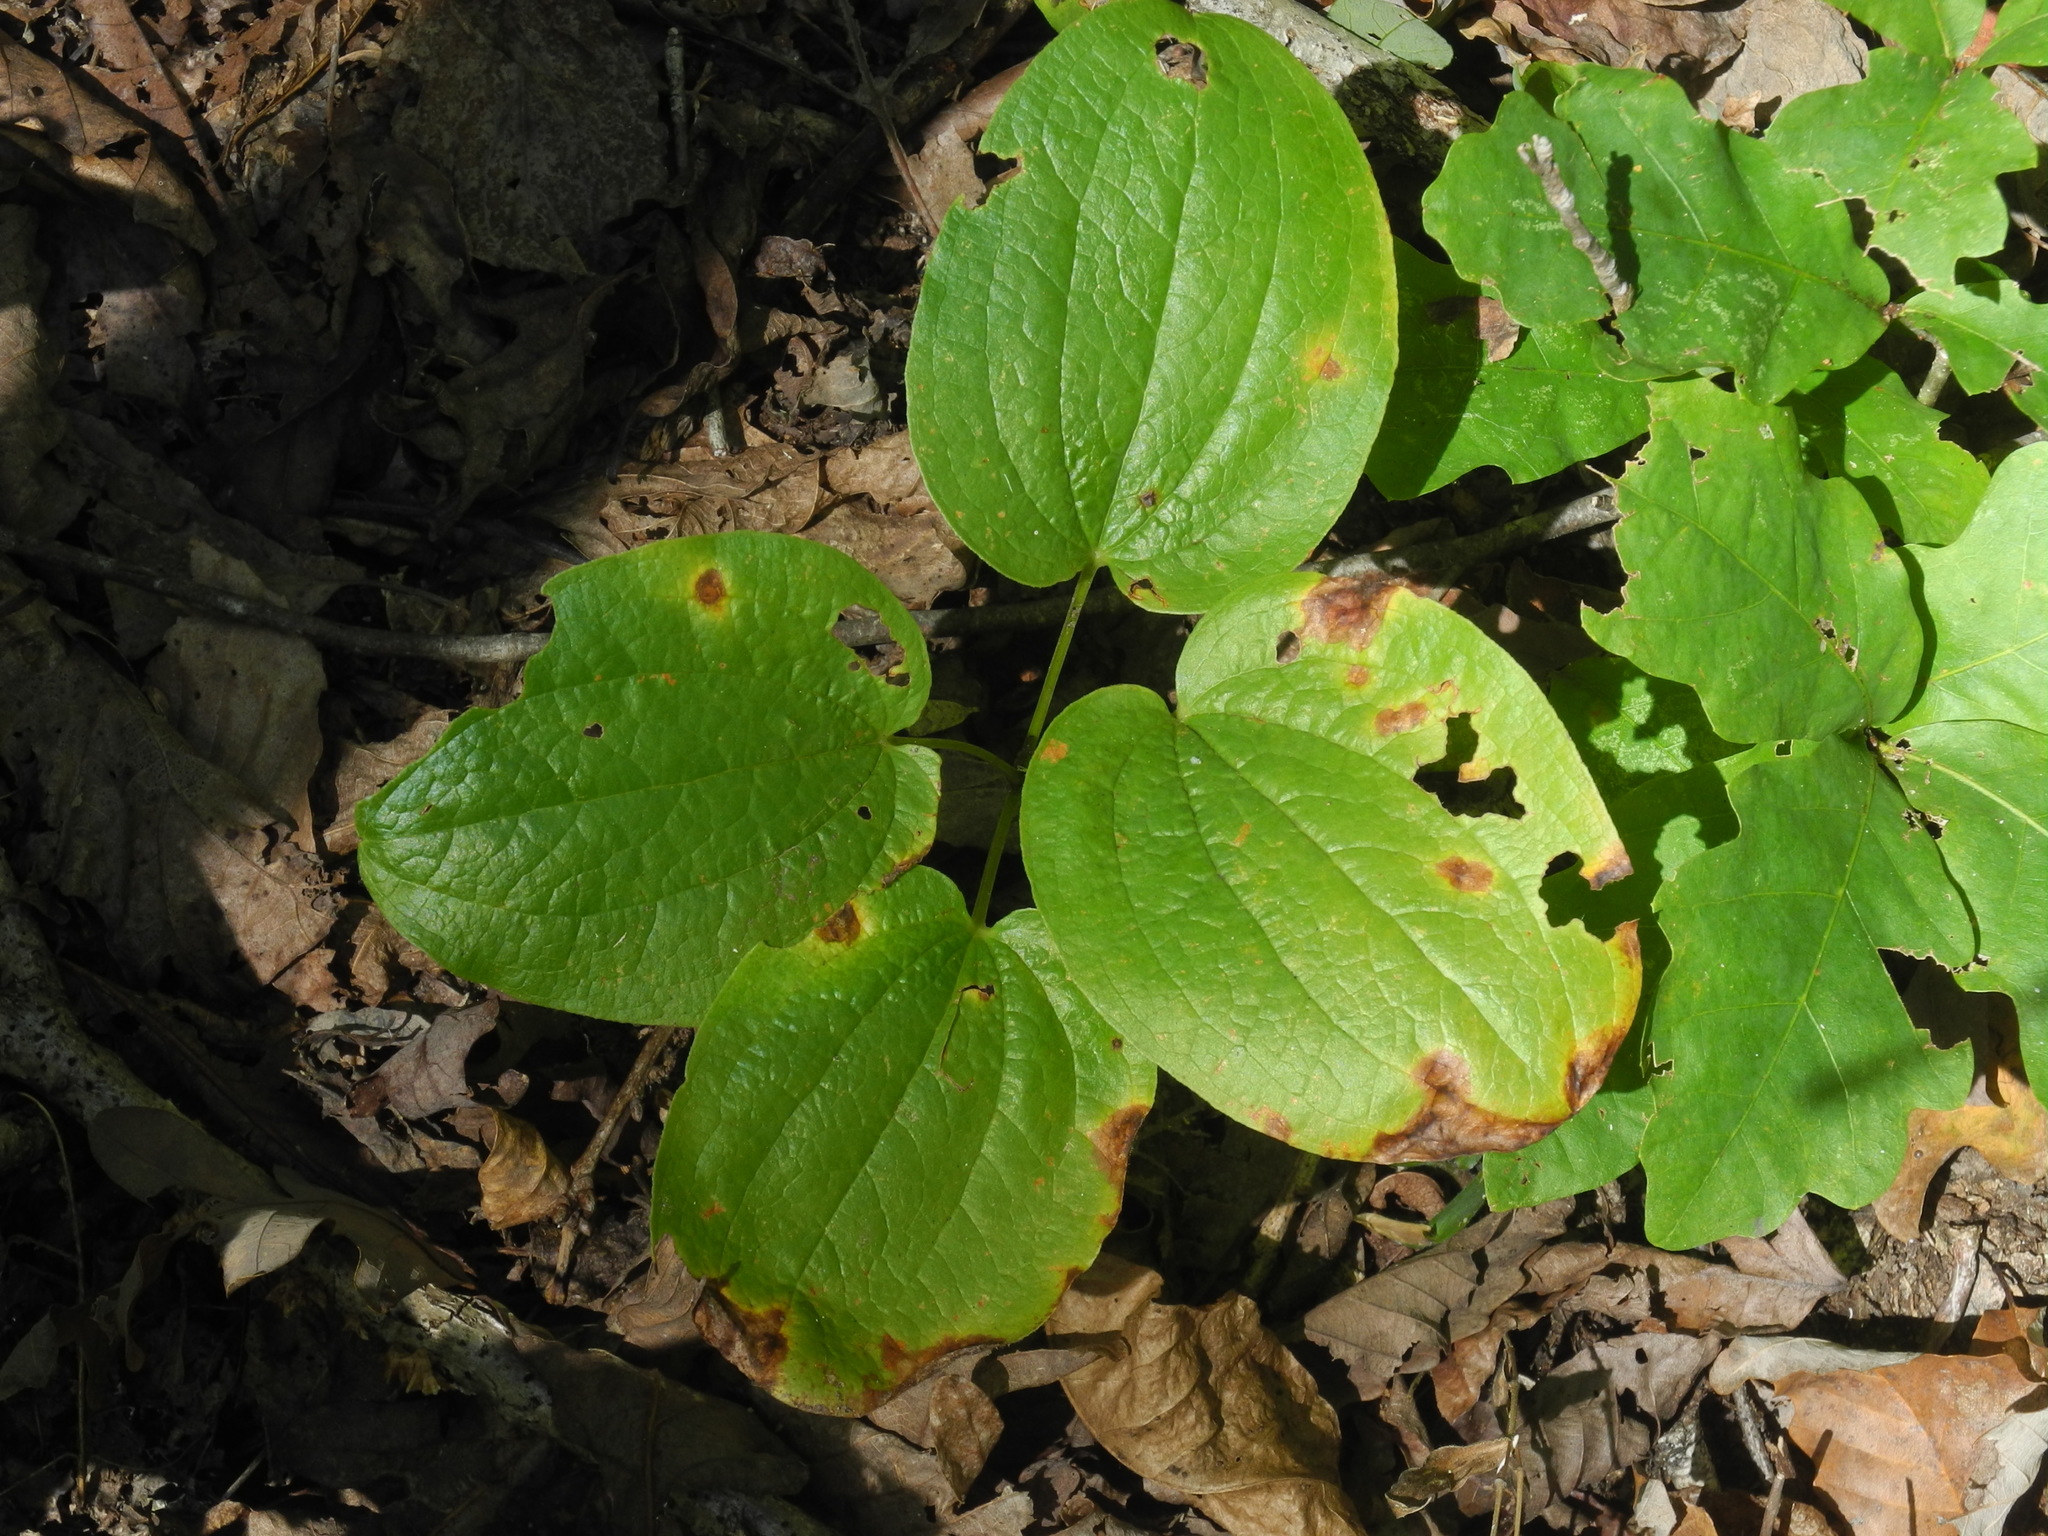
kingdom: Plantae
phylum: Tracheophyta
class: Liliopsida
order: Liliales
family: Smilacaceae
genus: Smilax
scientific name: Smilax hugeri
